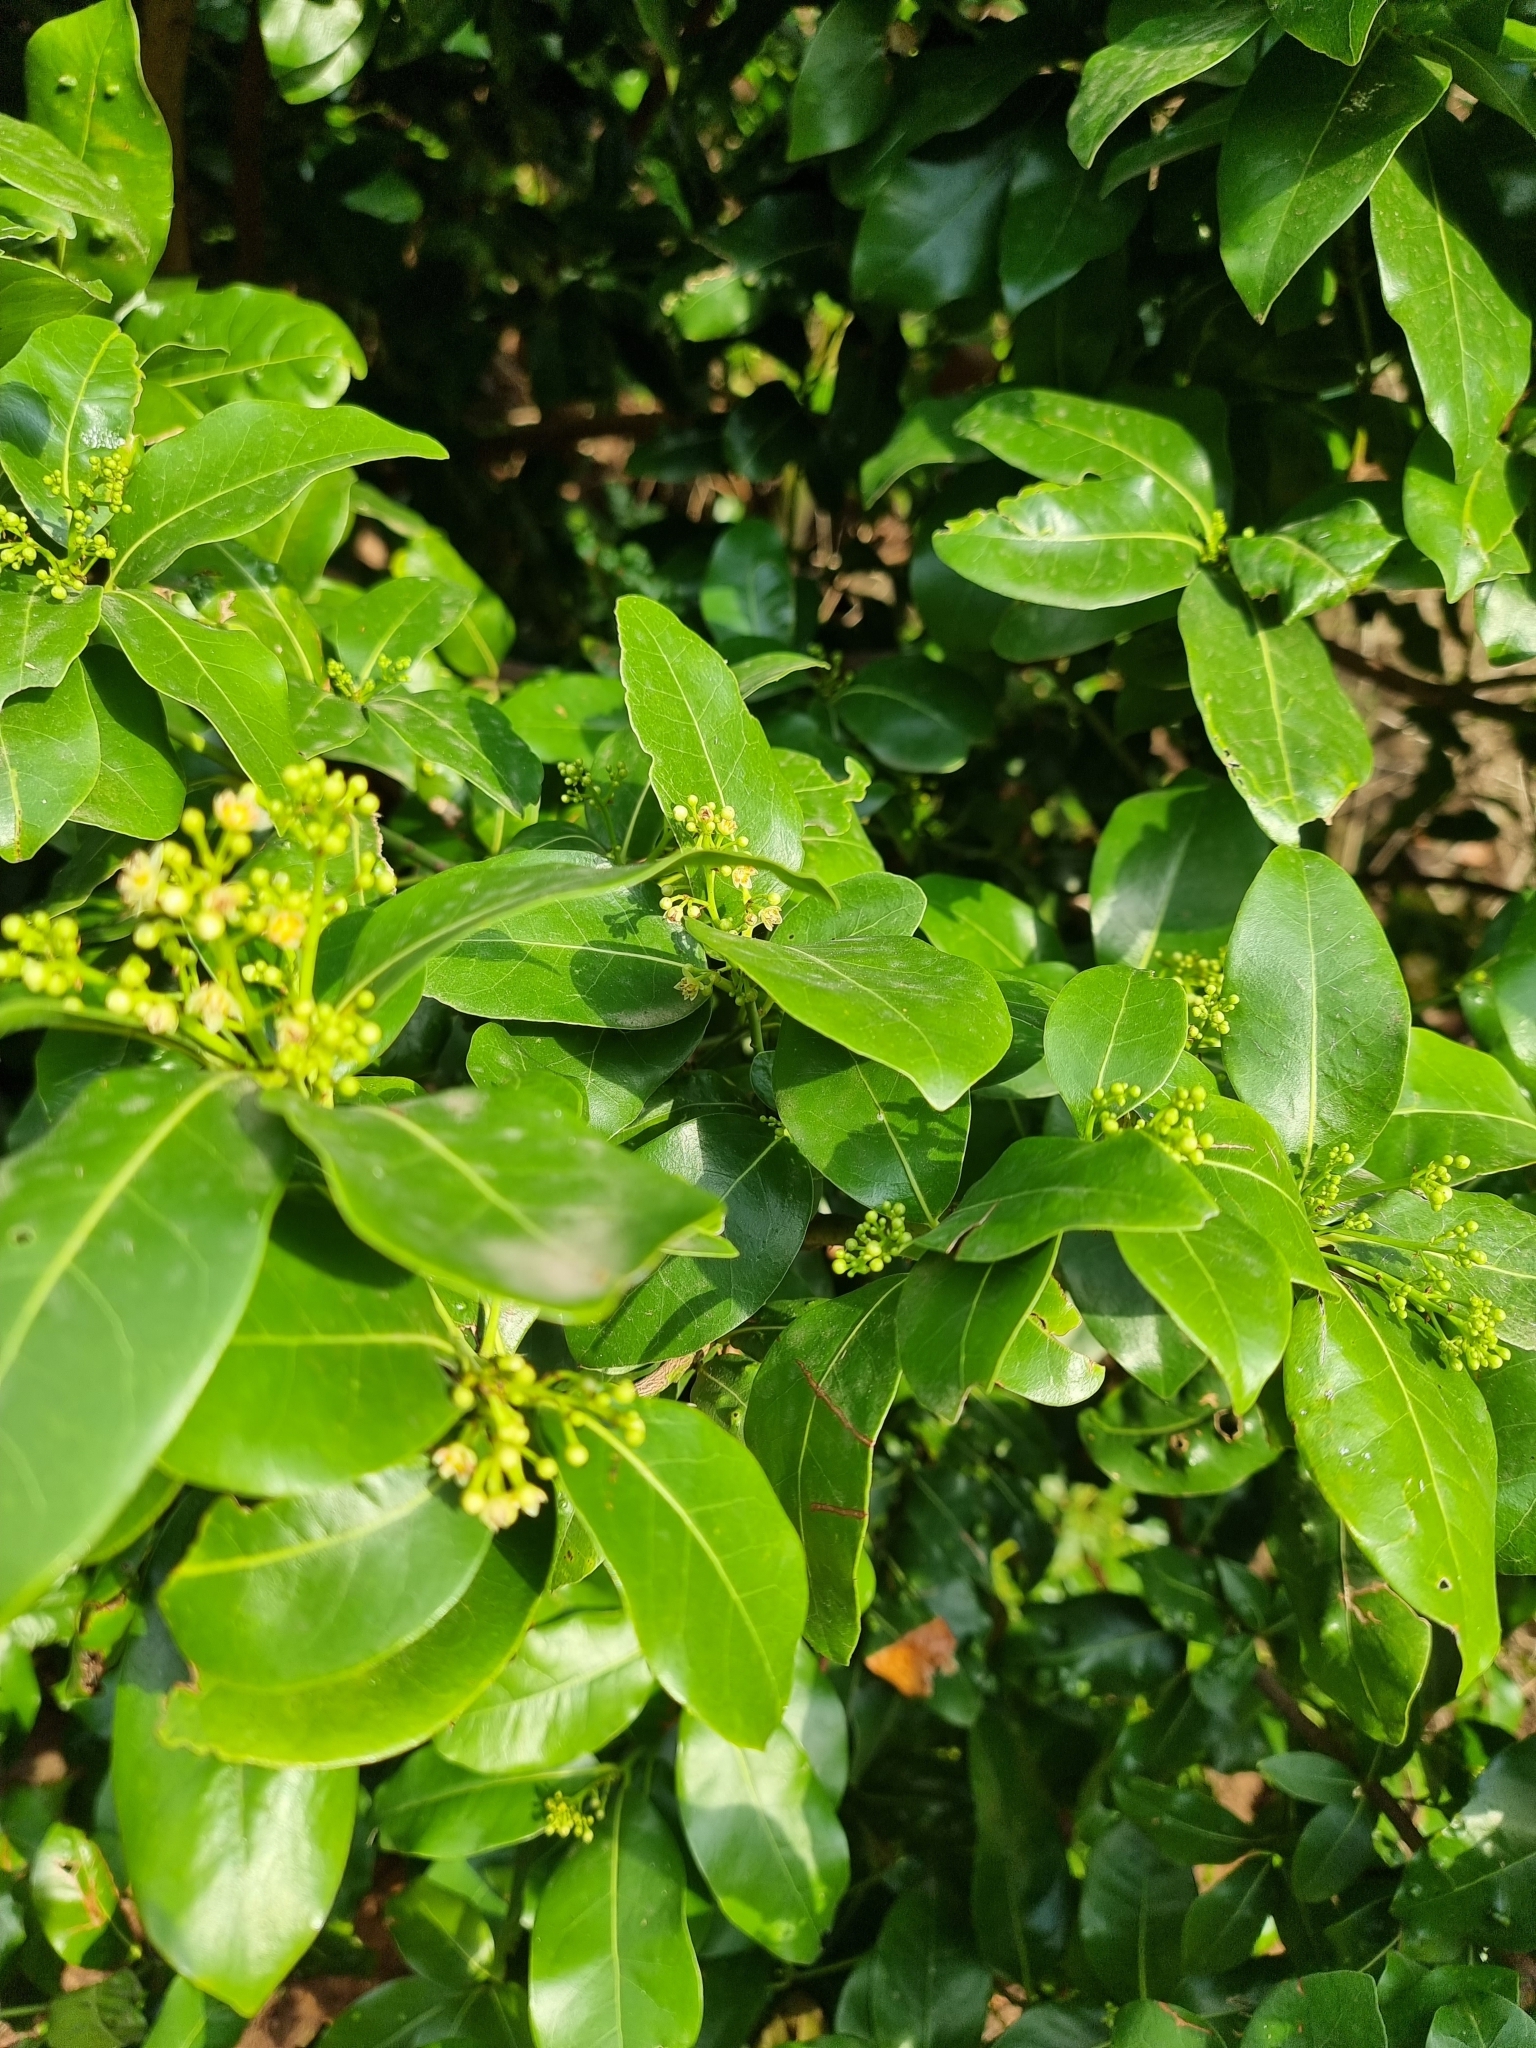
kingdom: Plantae
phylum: Tracheophyta
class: Magnoliopsida
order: Laurales
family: Lauraceae
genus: Apollonias
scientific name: Apollonias barbujana
